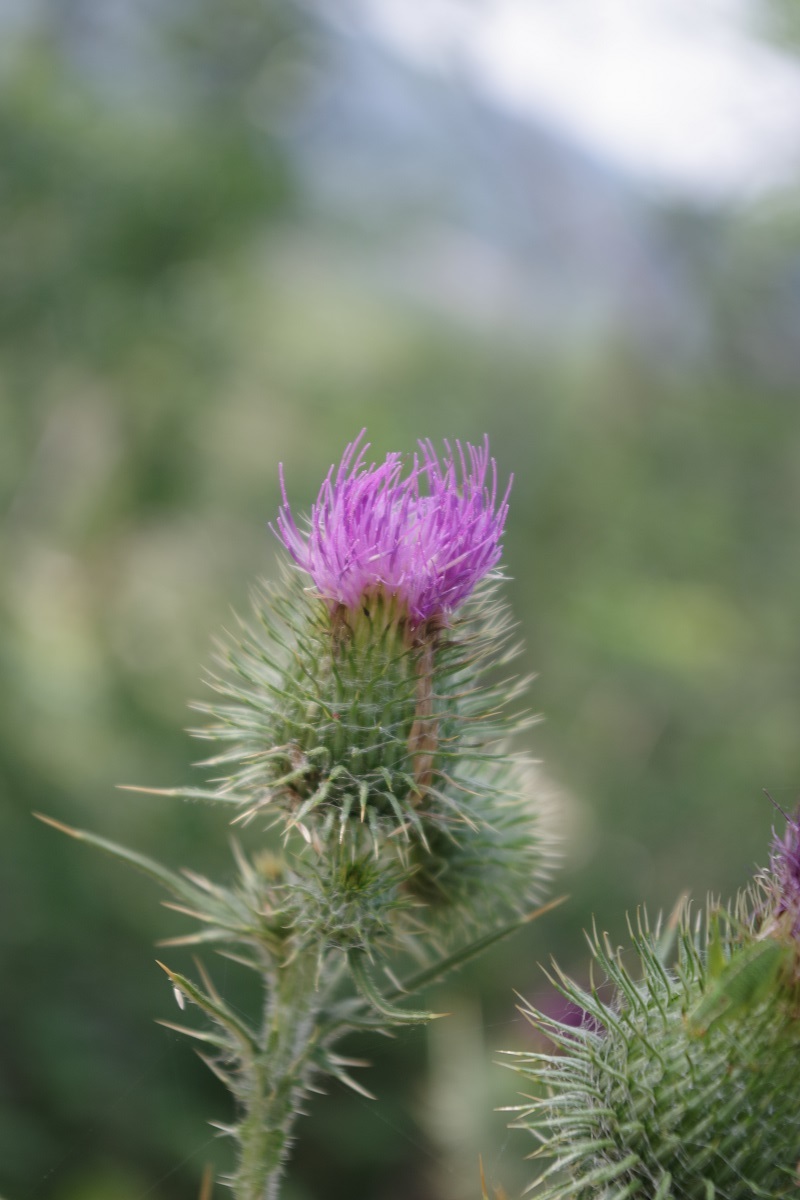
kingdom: Plantae
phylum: Tracheophyta
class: Magnoliopsida
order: Asterales
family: Asteraceae
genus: Cirsium
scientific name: Cirsium vulgare
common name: Bull thistle
